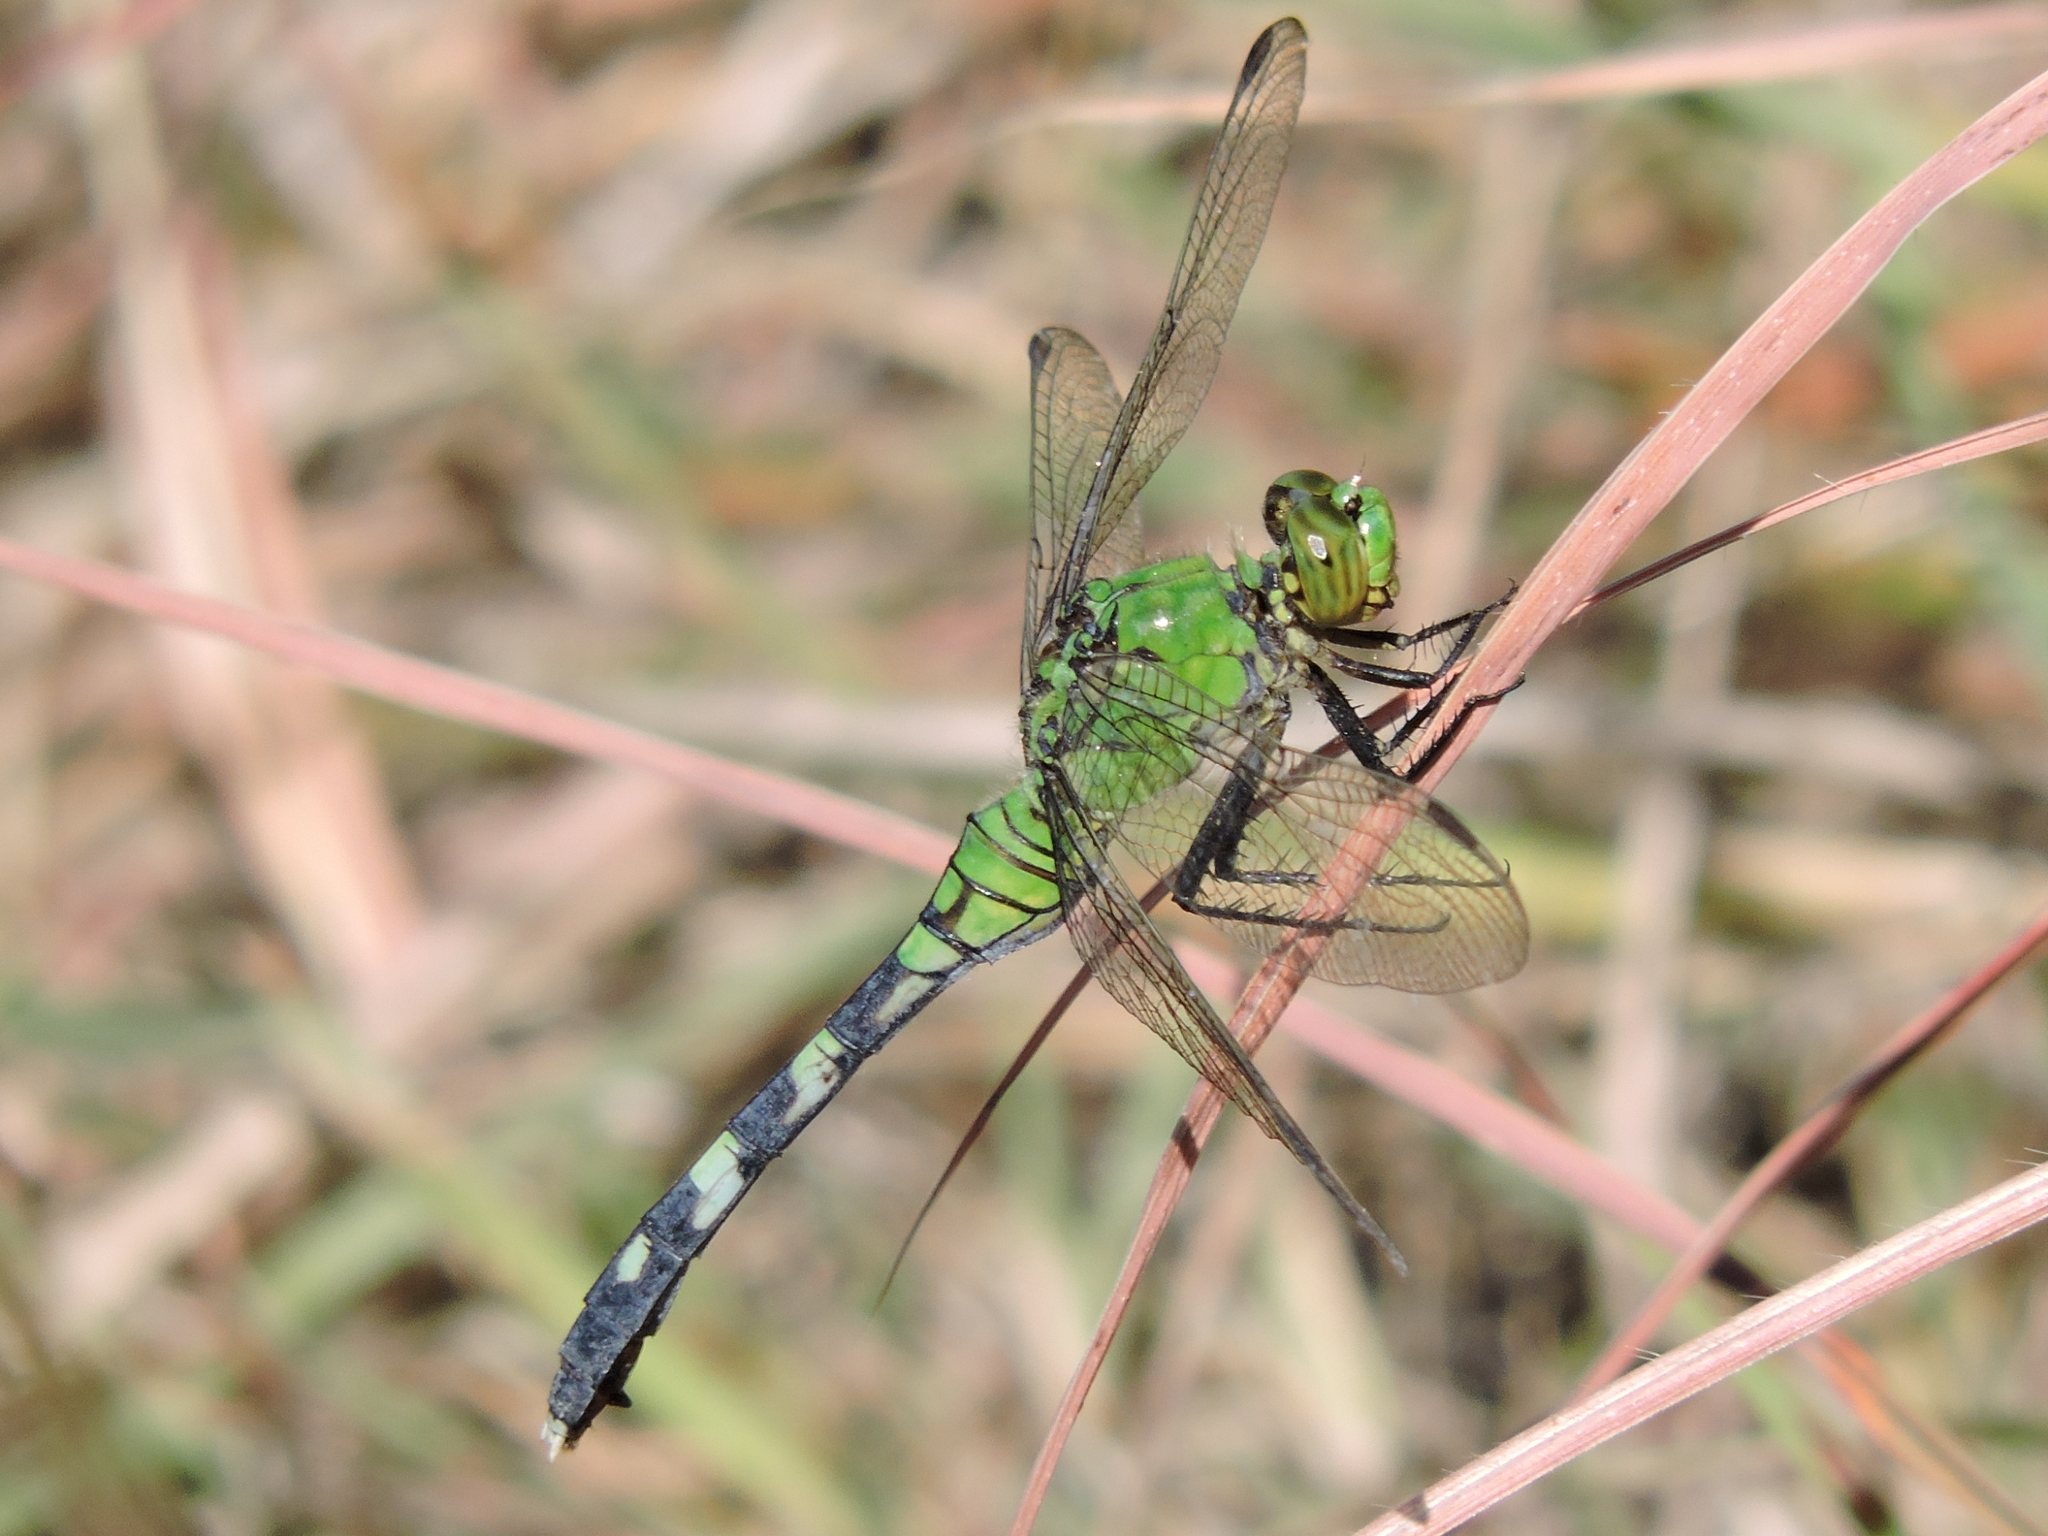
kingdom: Animalia
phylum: Arthropoda
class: Insecta
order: Odonata
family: Libellulidae
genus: Erythemis
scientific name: Erythemis simplicicollis
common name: Eastern pondhawk
